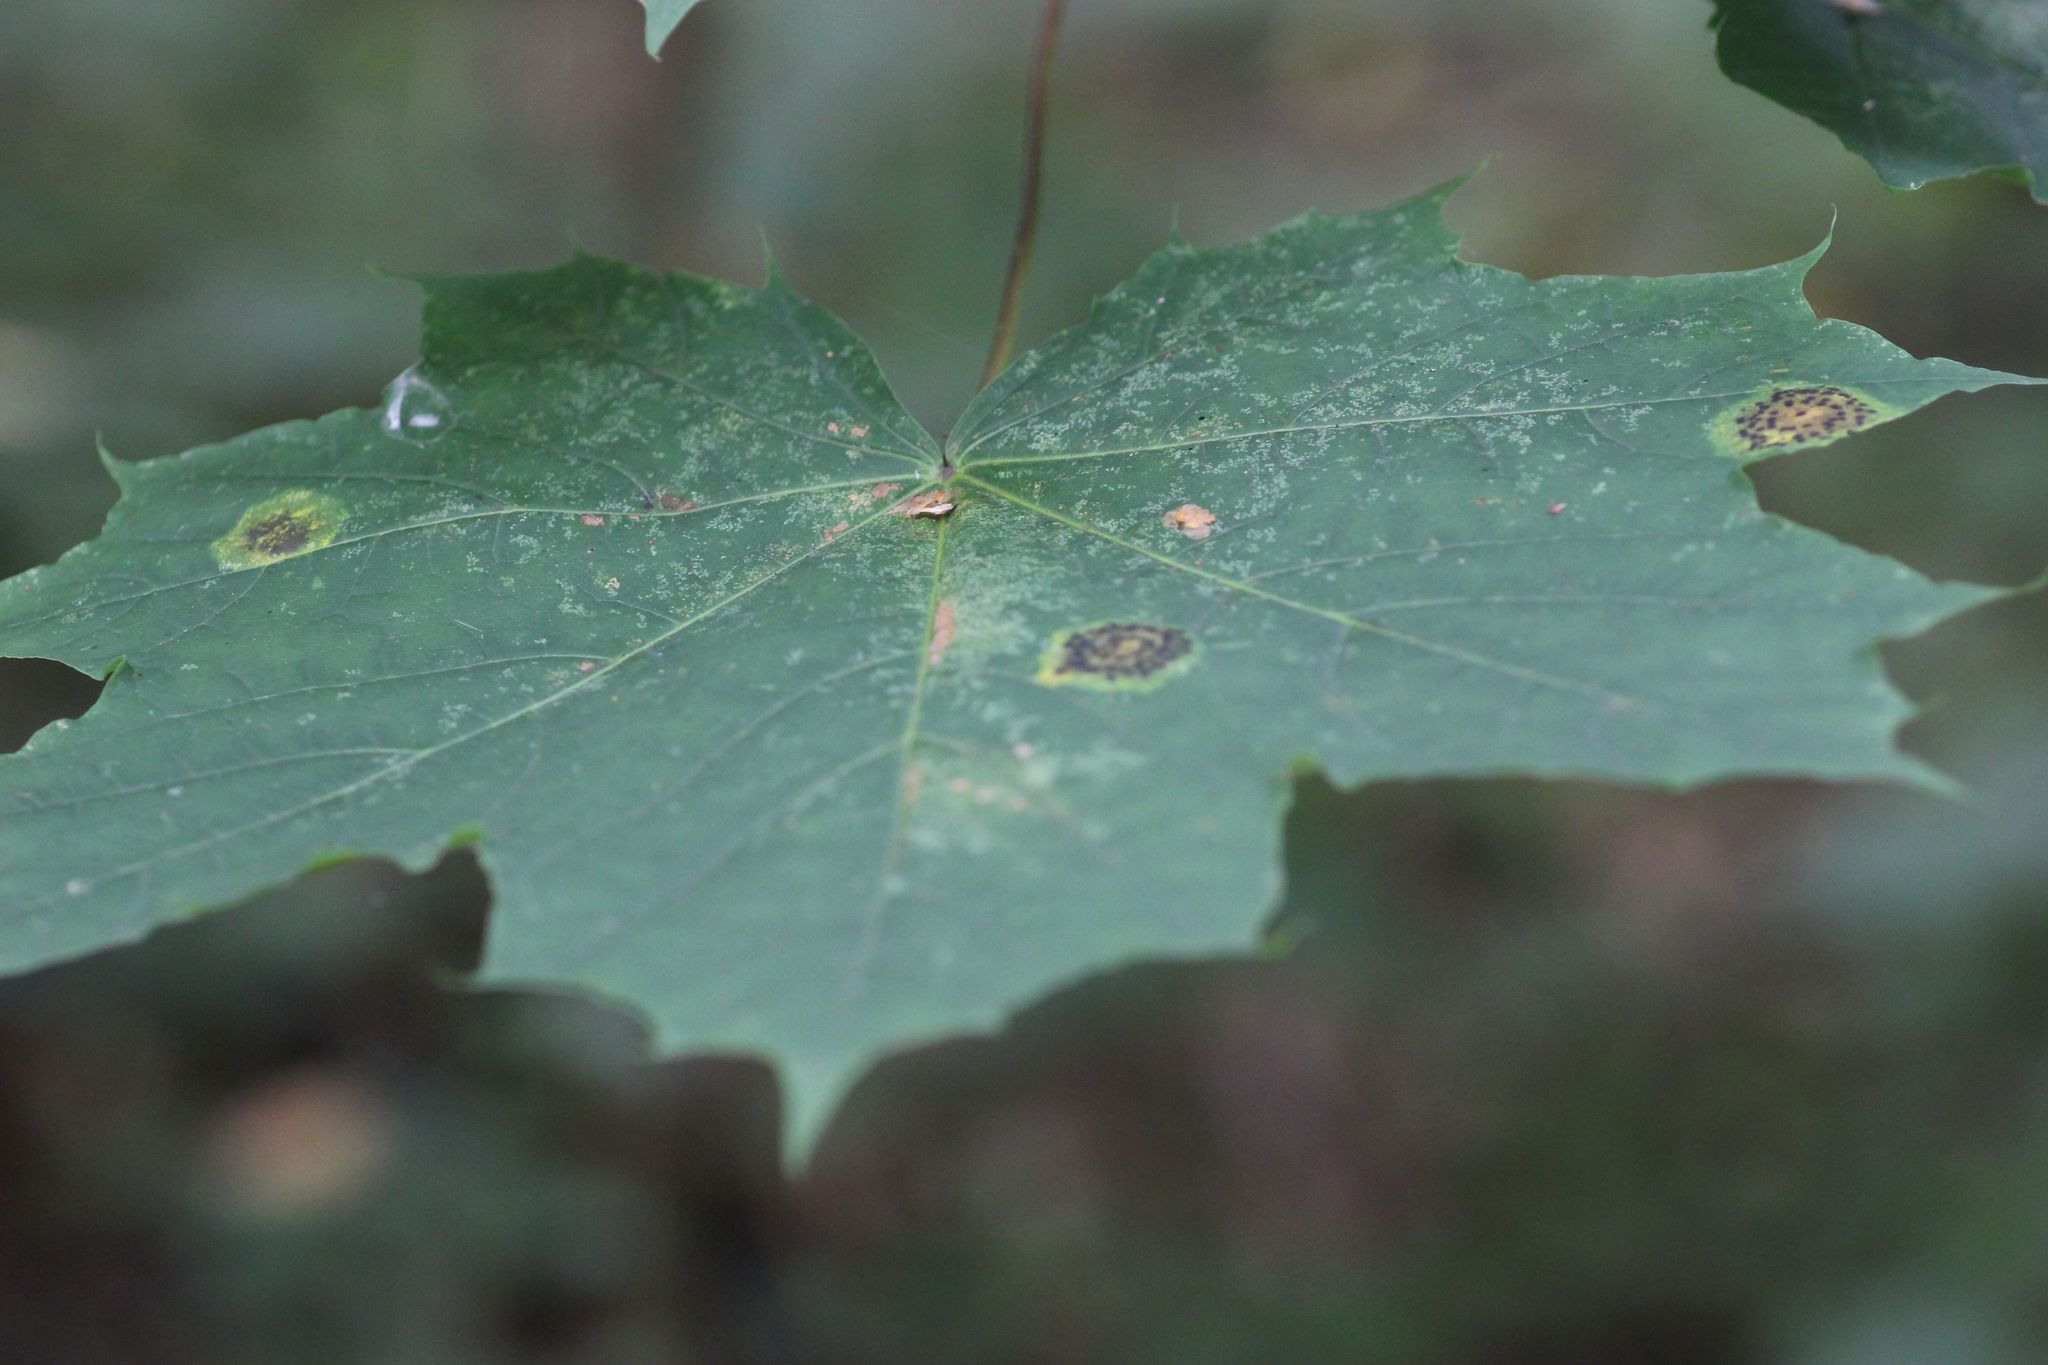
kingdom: Fungi
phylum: Ascomycota
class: Leotiomycetes
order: Rhytismatales
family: Rhytismataceae
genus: Rhytisma
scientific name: Rhytisma acerinum
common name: European tar spot
